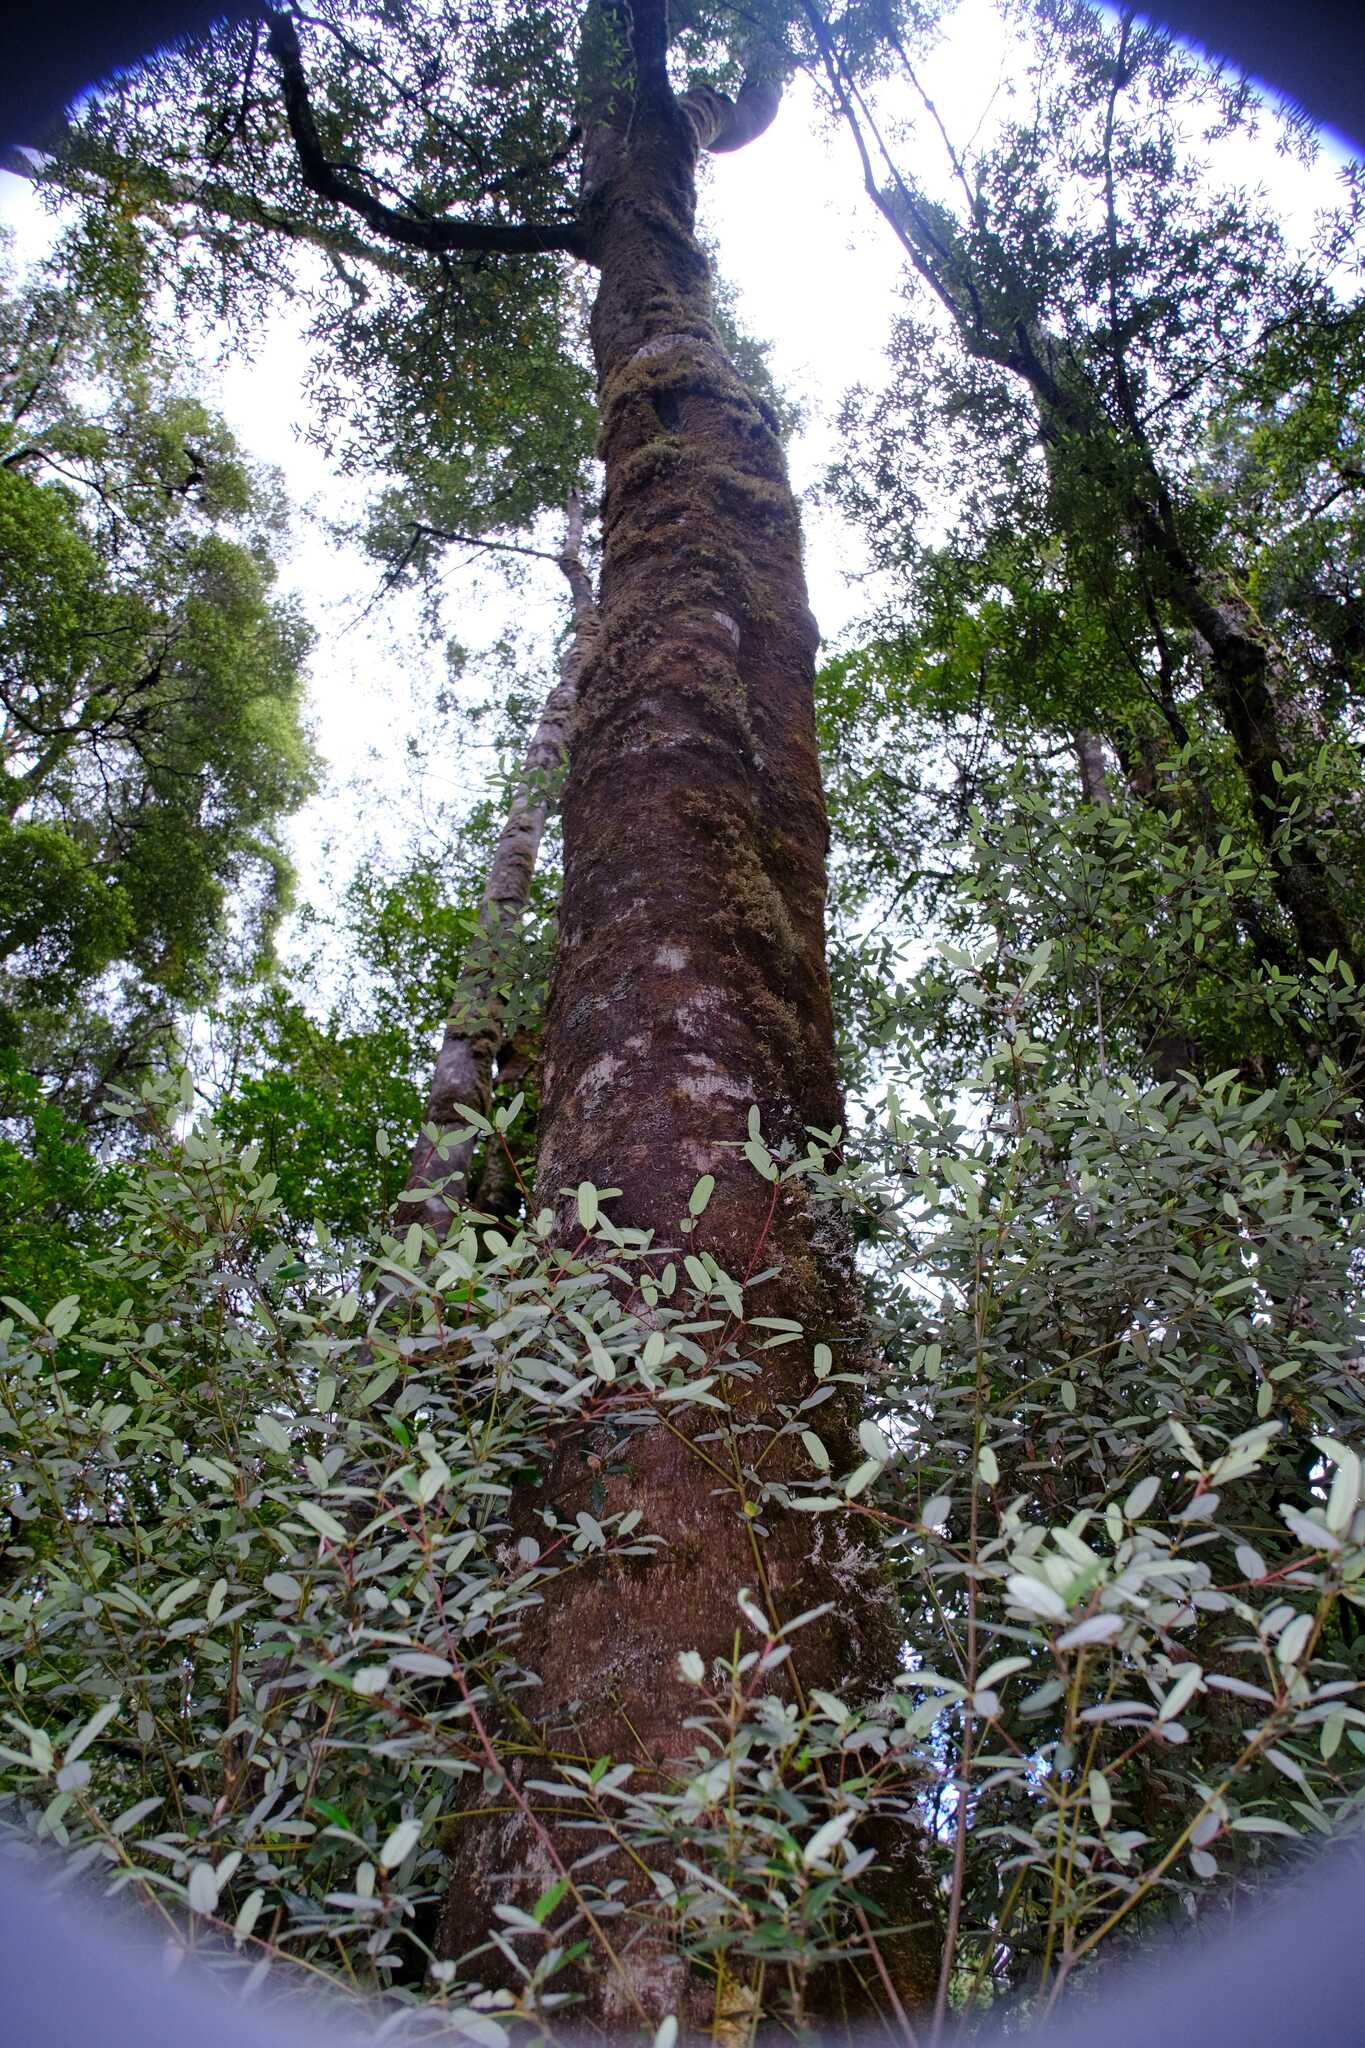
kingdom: Plantae
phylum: Tracheophyta
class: Magnoliopsida
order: Oxalidales
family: Cunoniaceae
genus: Eucryphia
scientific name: Eucryphia lucida
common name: Leatherwood
